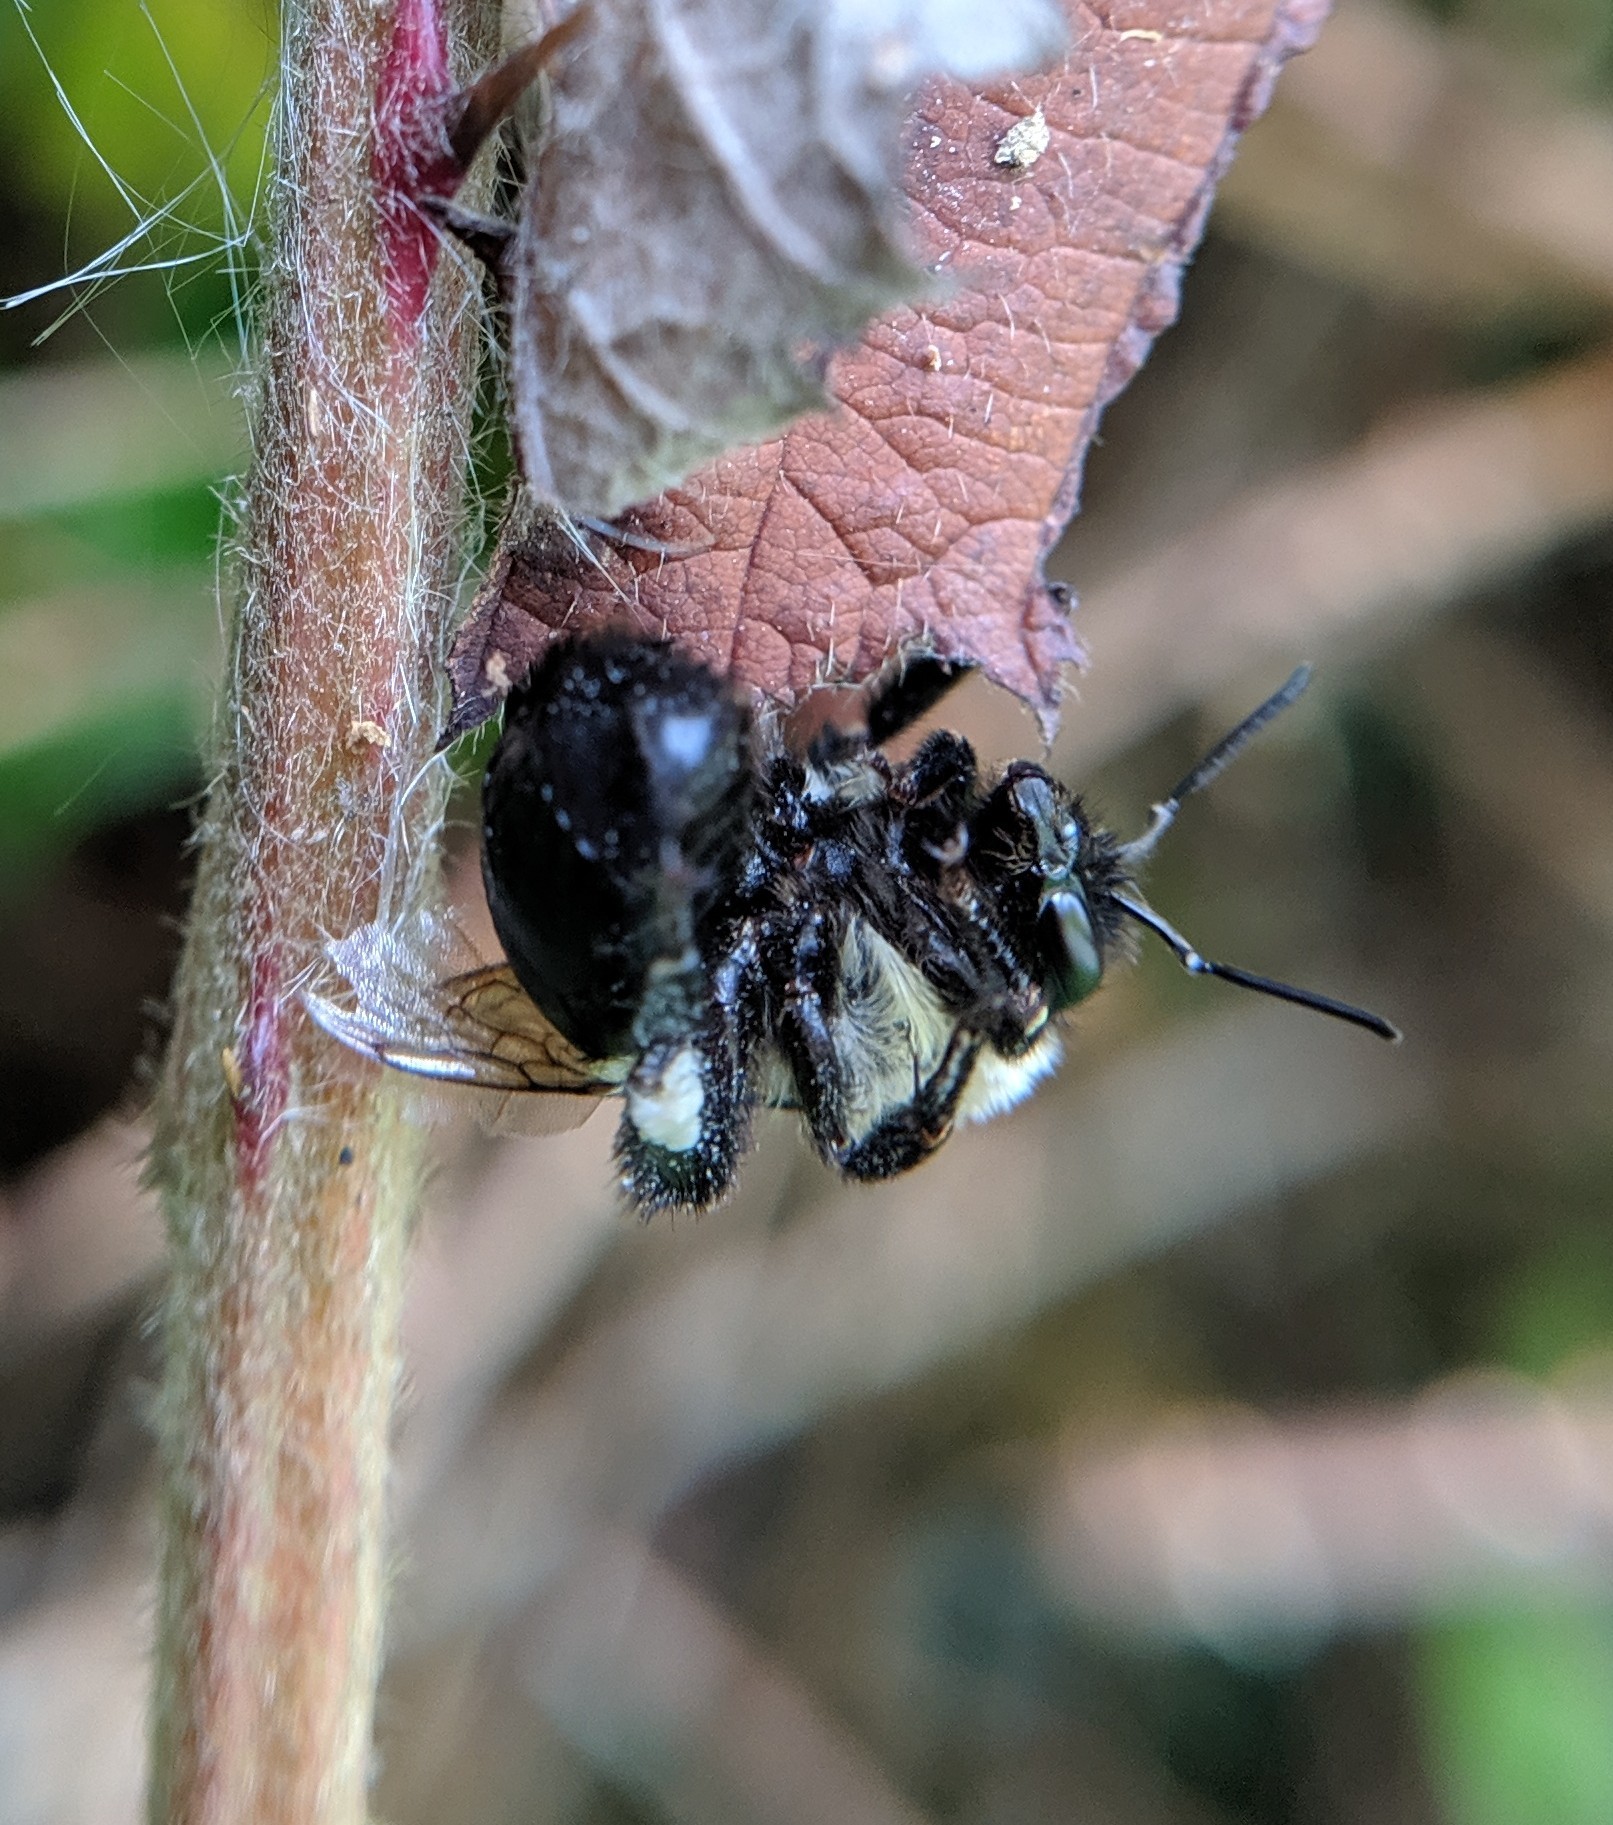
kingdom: Animalia
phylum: Arthropoda
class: Insecta
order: Hymenoptera
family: Apidae
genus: Bombus
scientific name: Bombus impatiens
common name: Common eastern bumble bee
